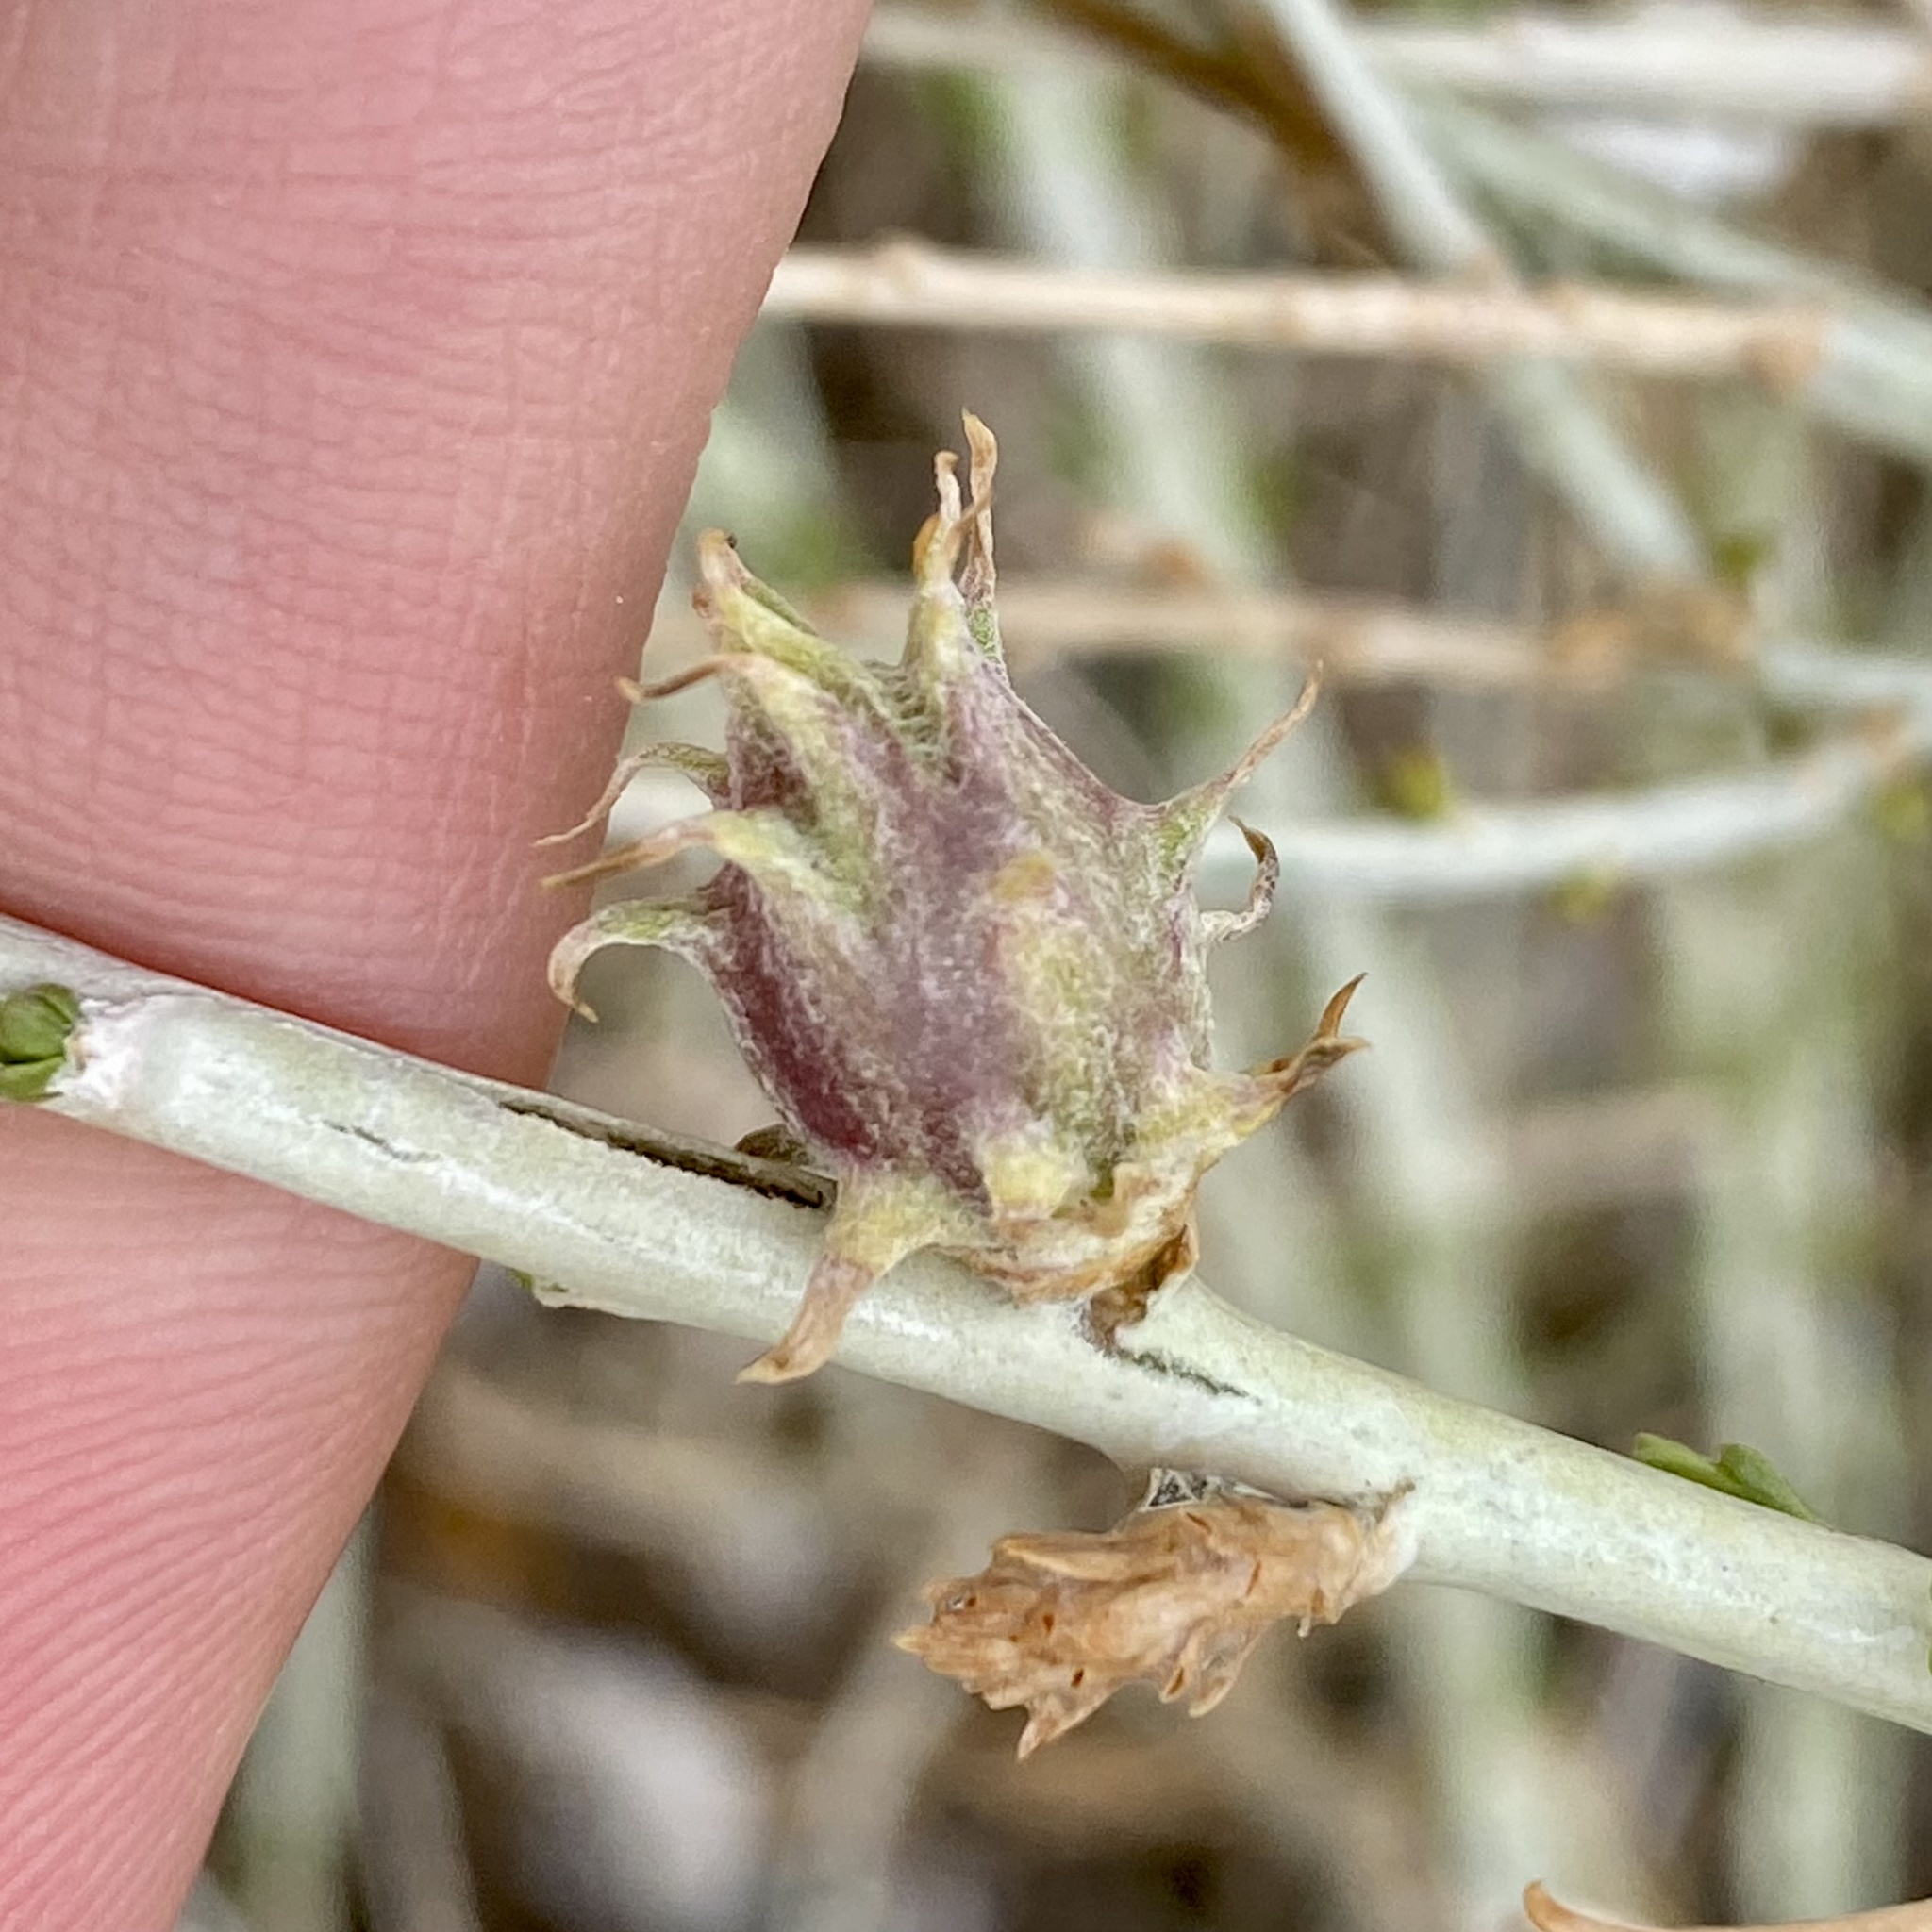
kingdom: Animalia
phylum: Arthropoda
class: Insecta
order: Diptera
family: Cecidomyiidae
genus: Rhopalomyia
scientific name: Rhopalomyia utahensis
